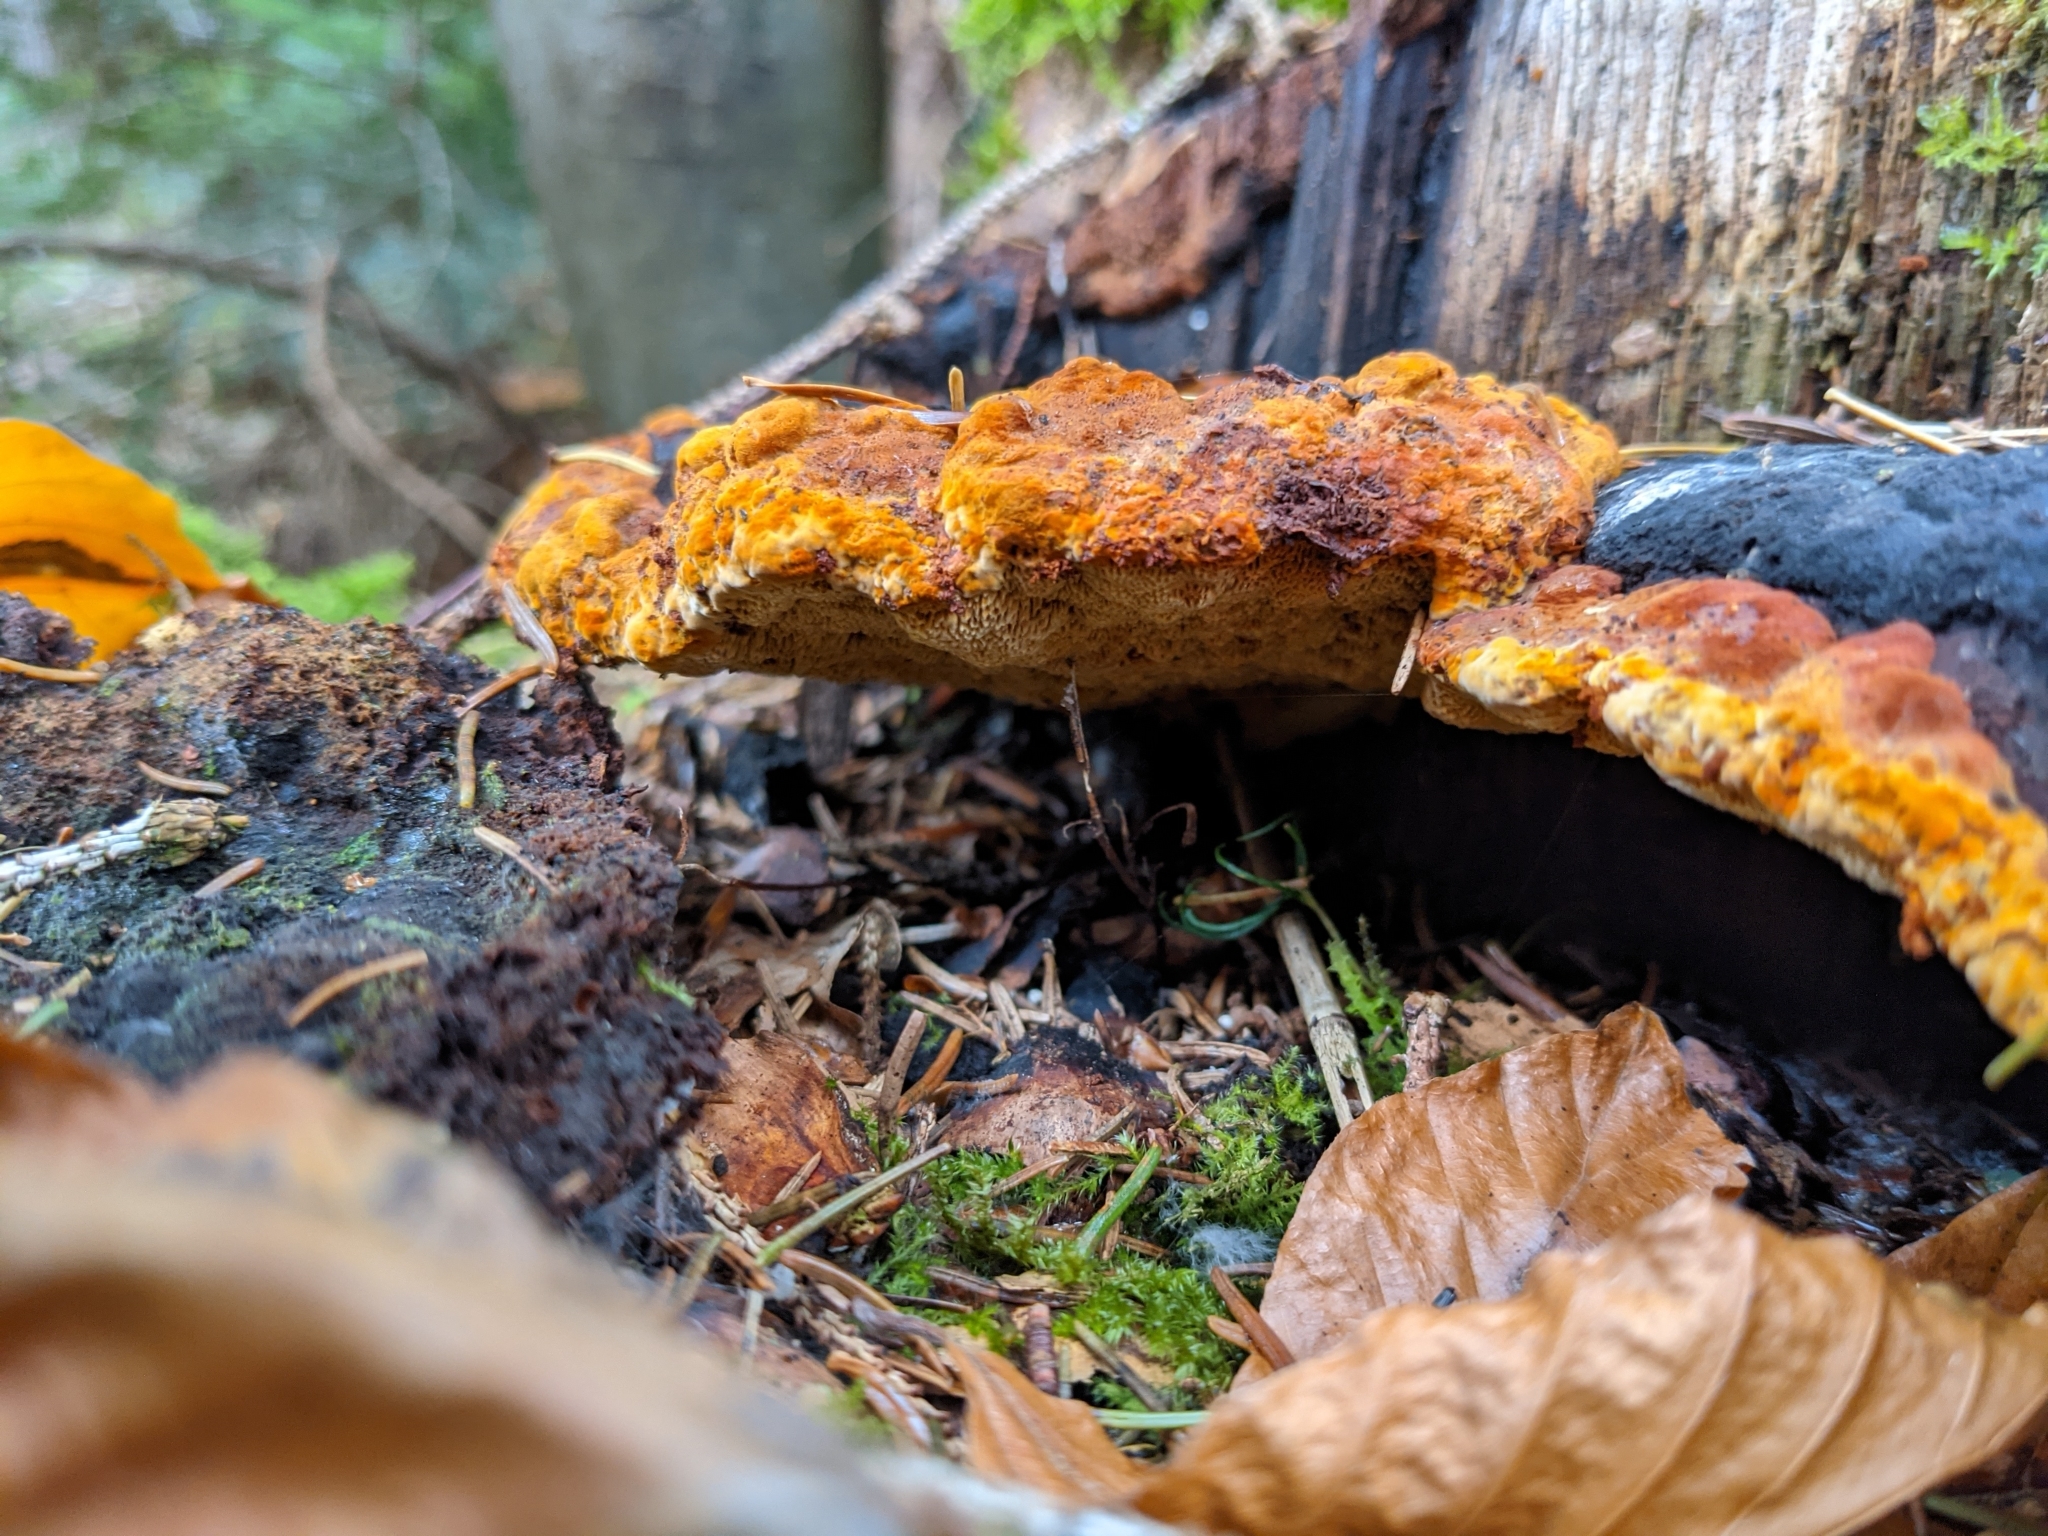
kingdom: Fungi
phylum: Basidiomycota
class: Agaricomycetes
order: Gloeophyllales
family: Gloeophyllaceae
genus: Gloeophyllum
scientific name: Gloeophyllum odoratum
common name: Anise mazegill
